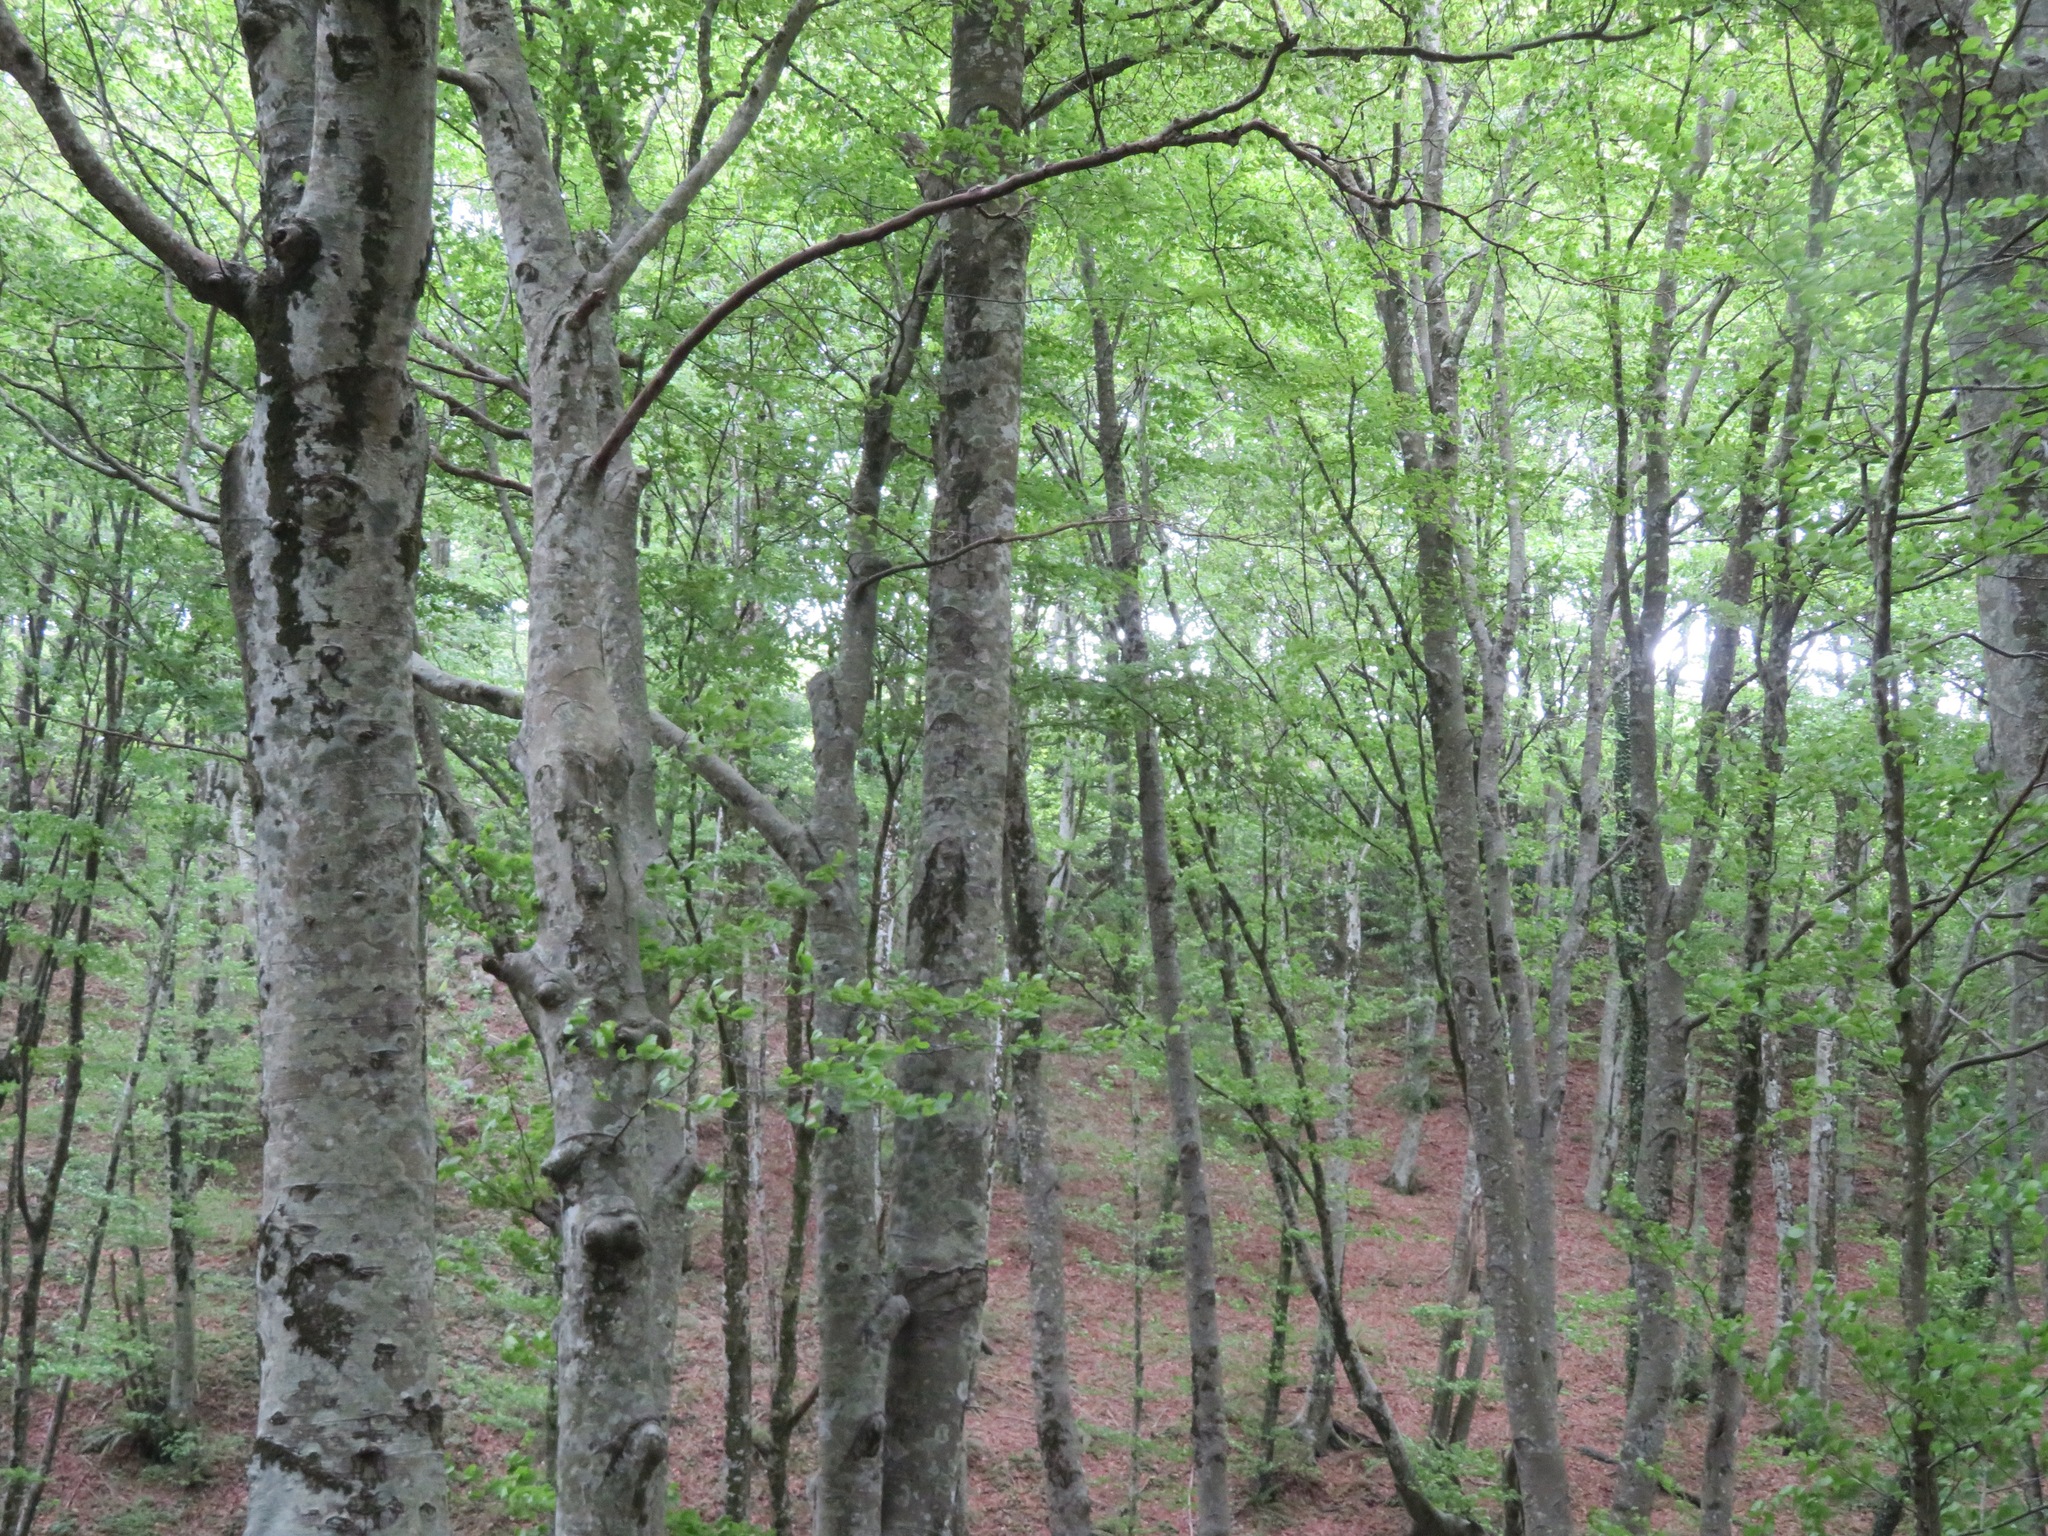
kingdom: Plantae
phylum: Tracheophyta
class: Magnoliopsida
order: Fagales
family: Fagaceae
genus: Fagus
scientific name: Fagus sylvatica
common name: Beech
